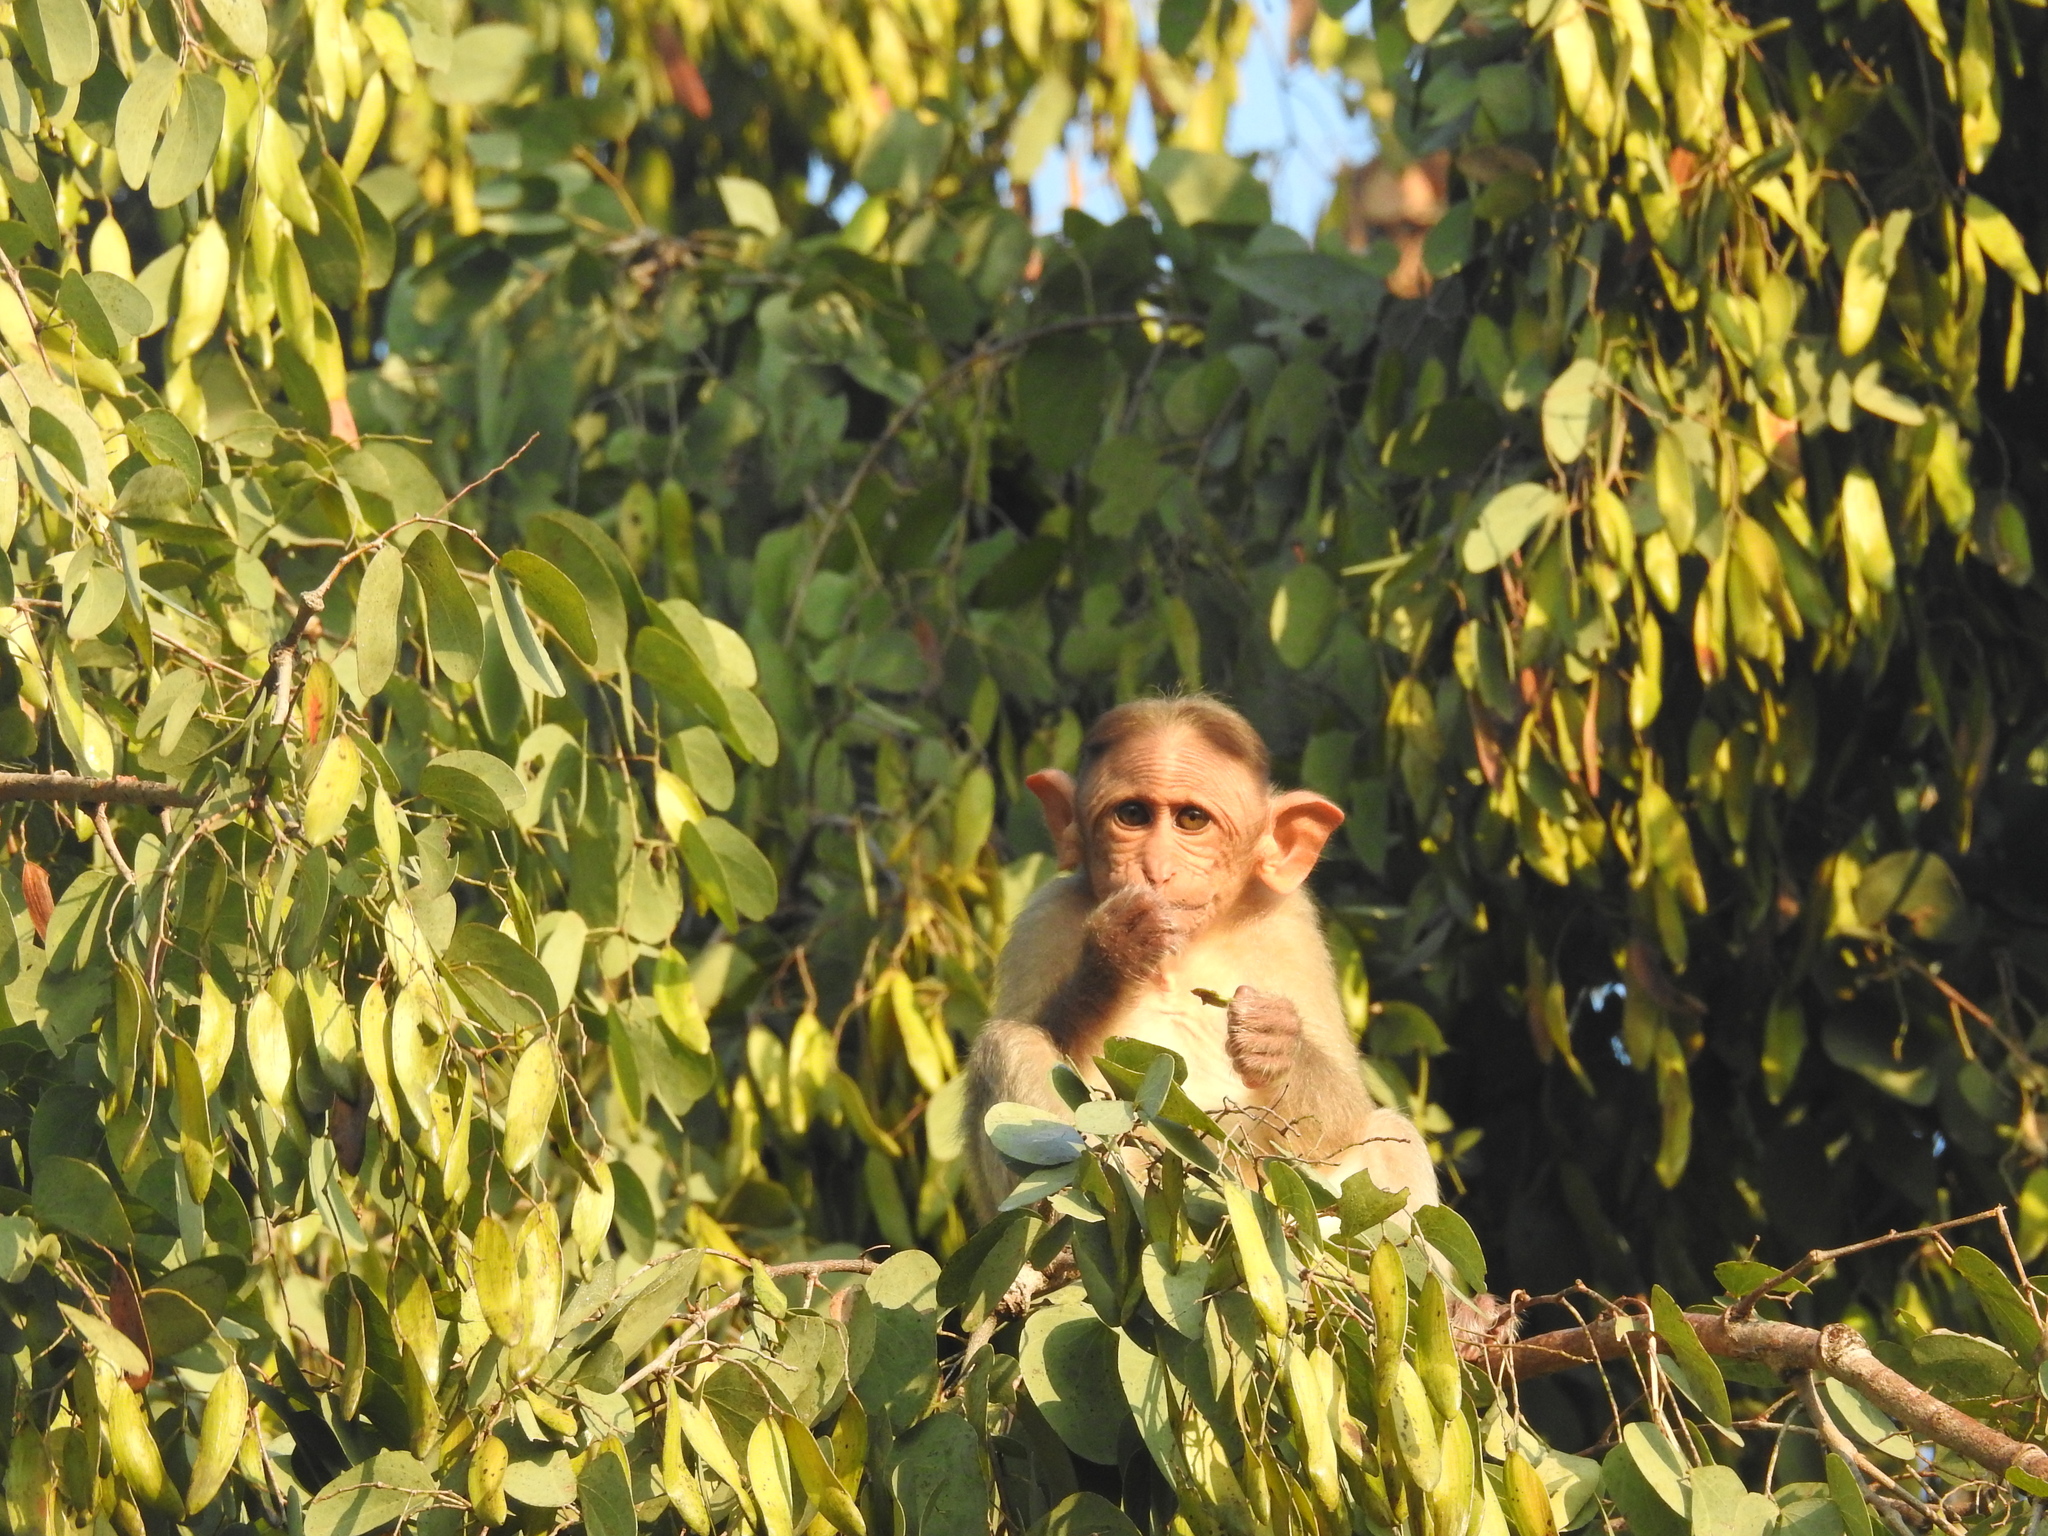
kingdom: Animalia
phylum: Chordata
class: Mammalia
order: Primates
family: Cercopithecidae
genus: Macaca
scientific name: Macaca radiata
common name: Bonnet macaque
